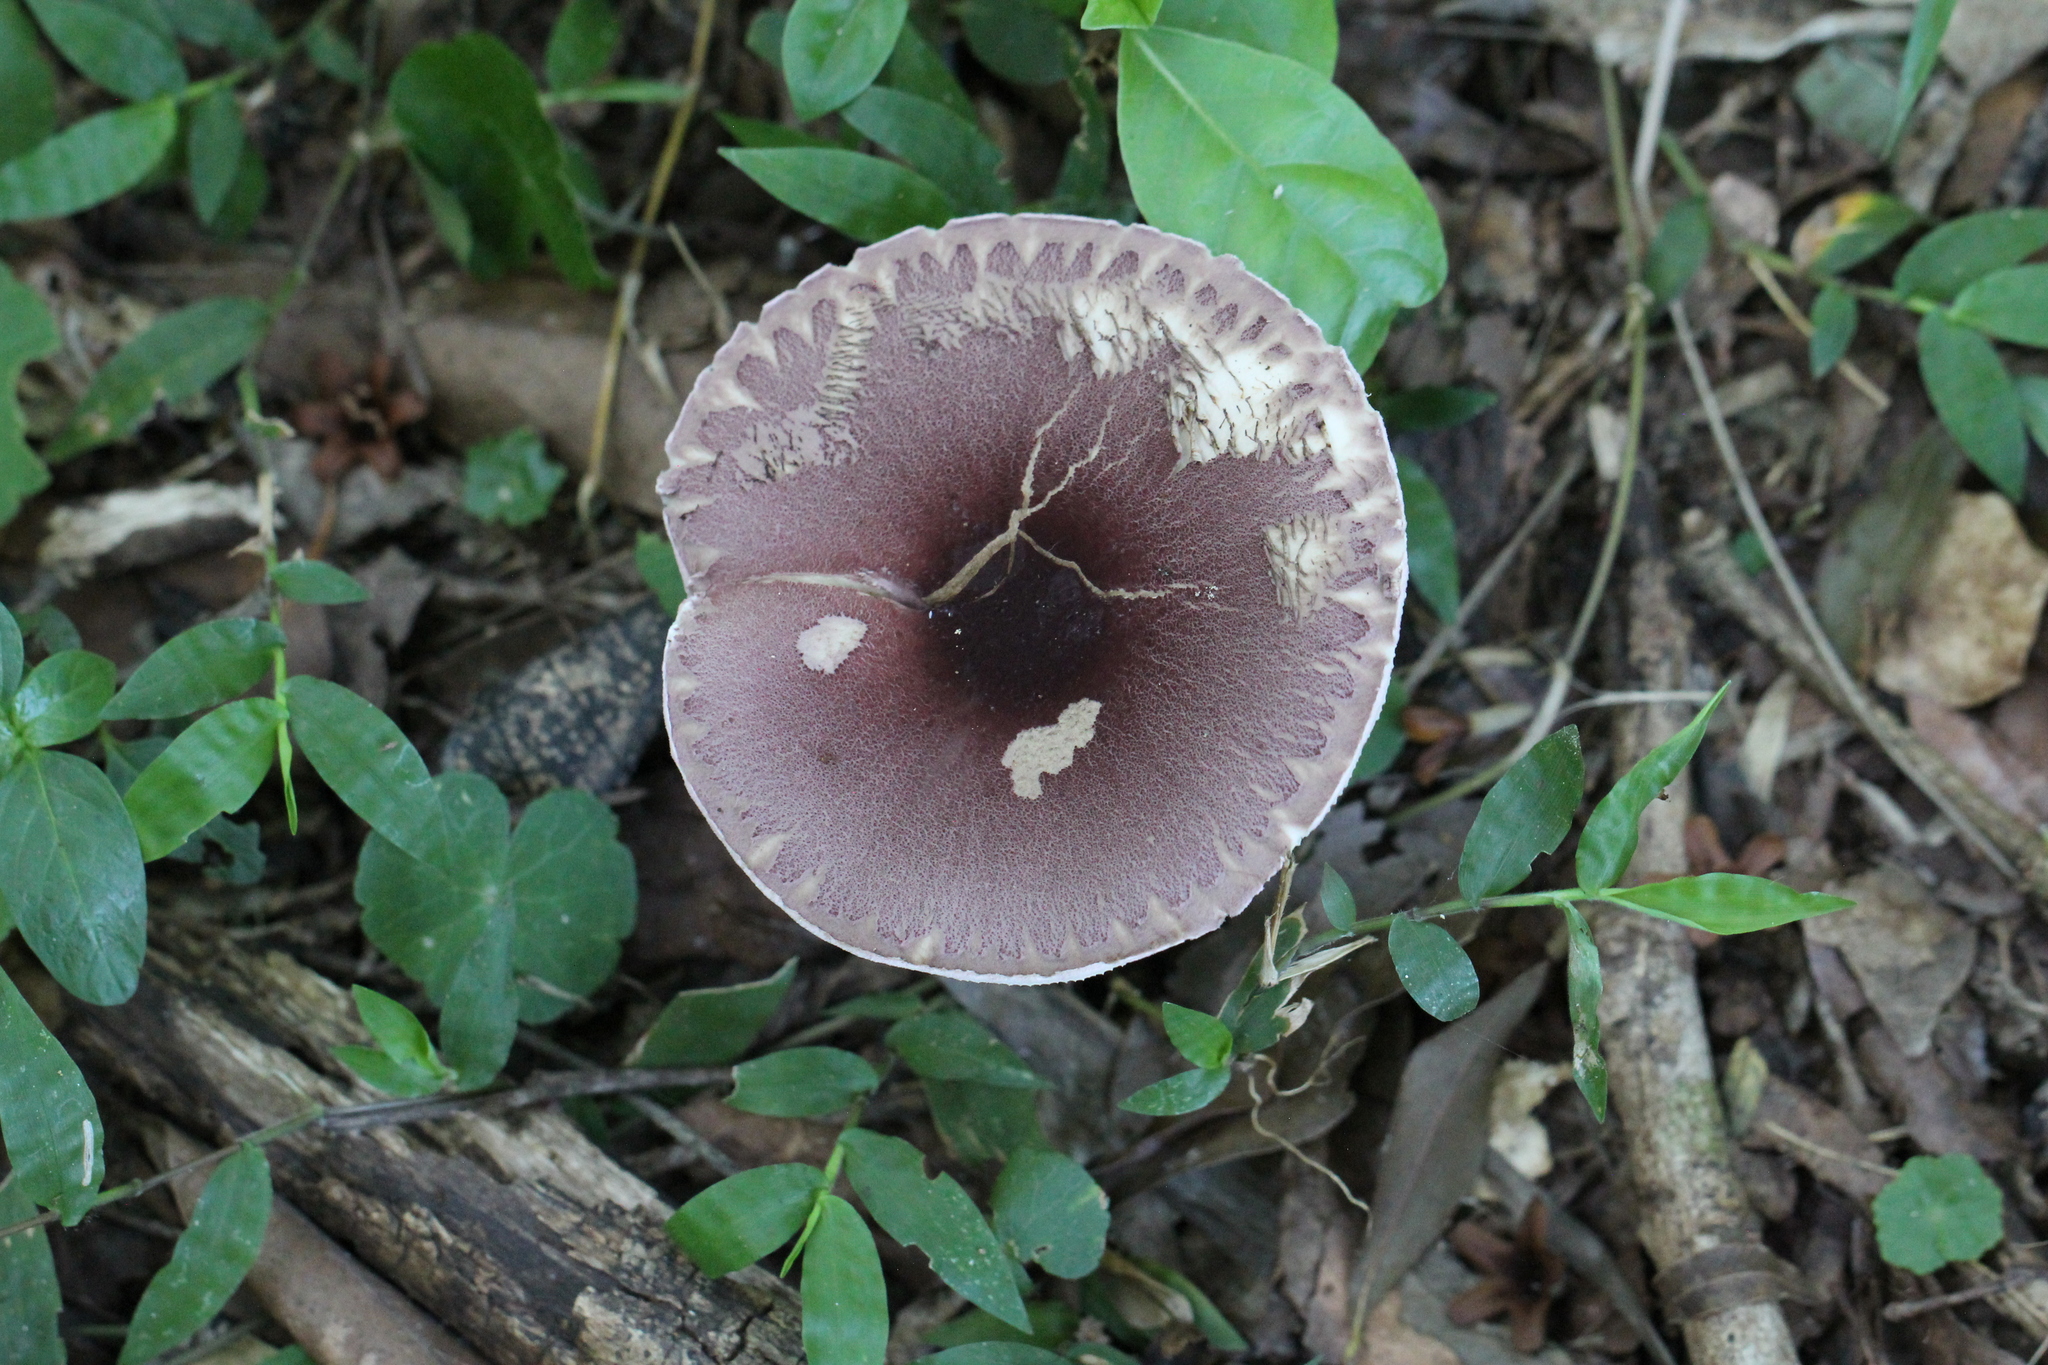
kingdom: Fungi
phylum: Basidiomycota
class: Agaricomycetes
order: Agaricales
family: Agaricaceae
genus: Leucoagaricus
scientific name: Leucoagaricus lilaceus
